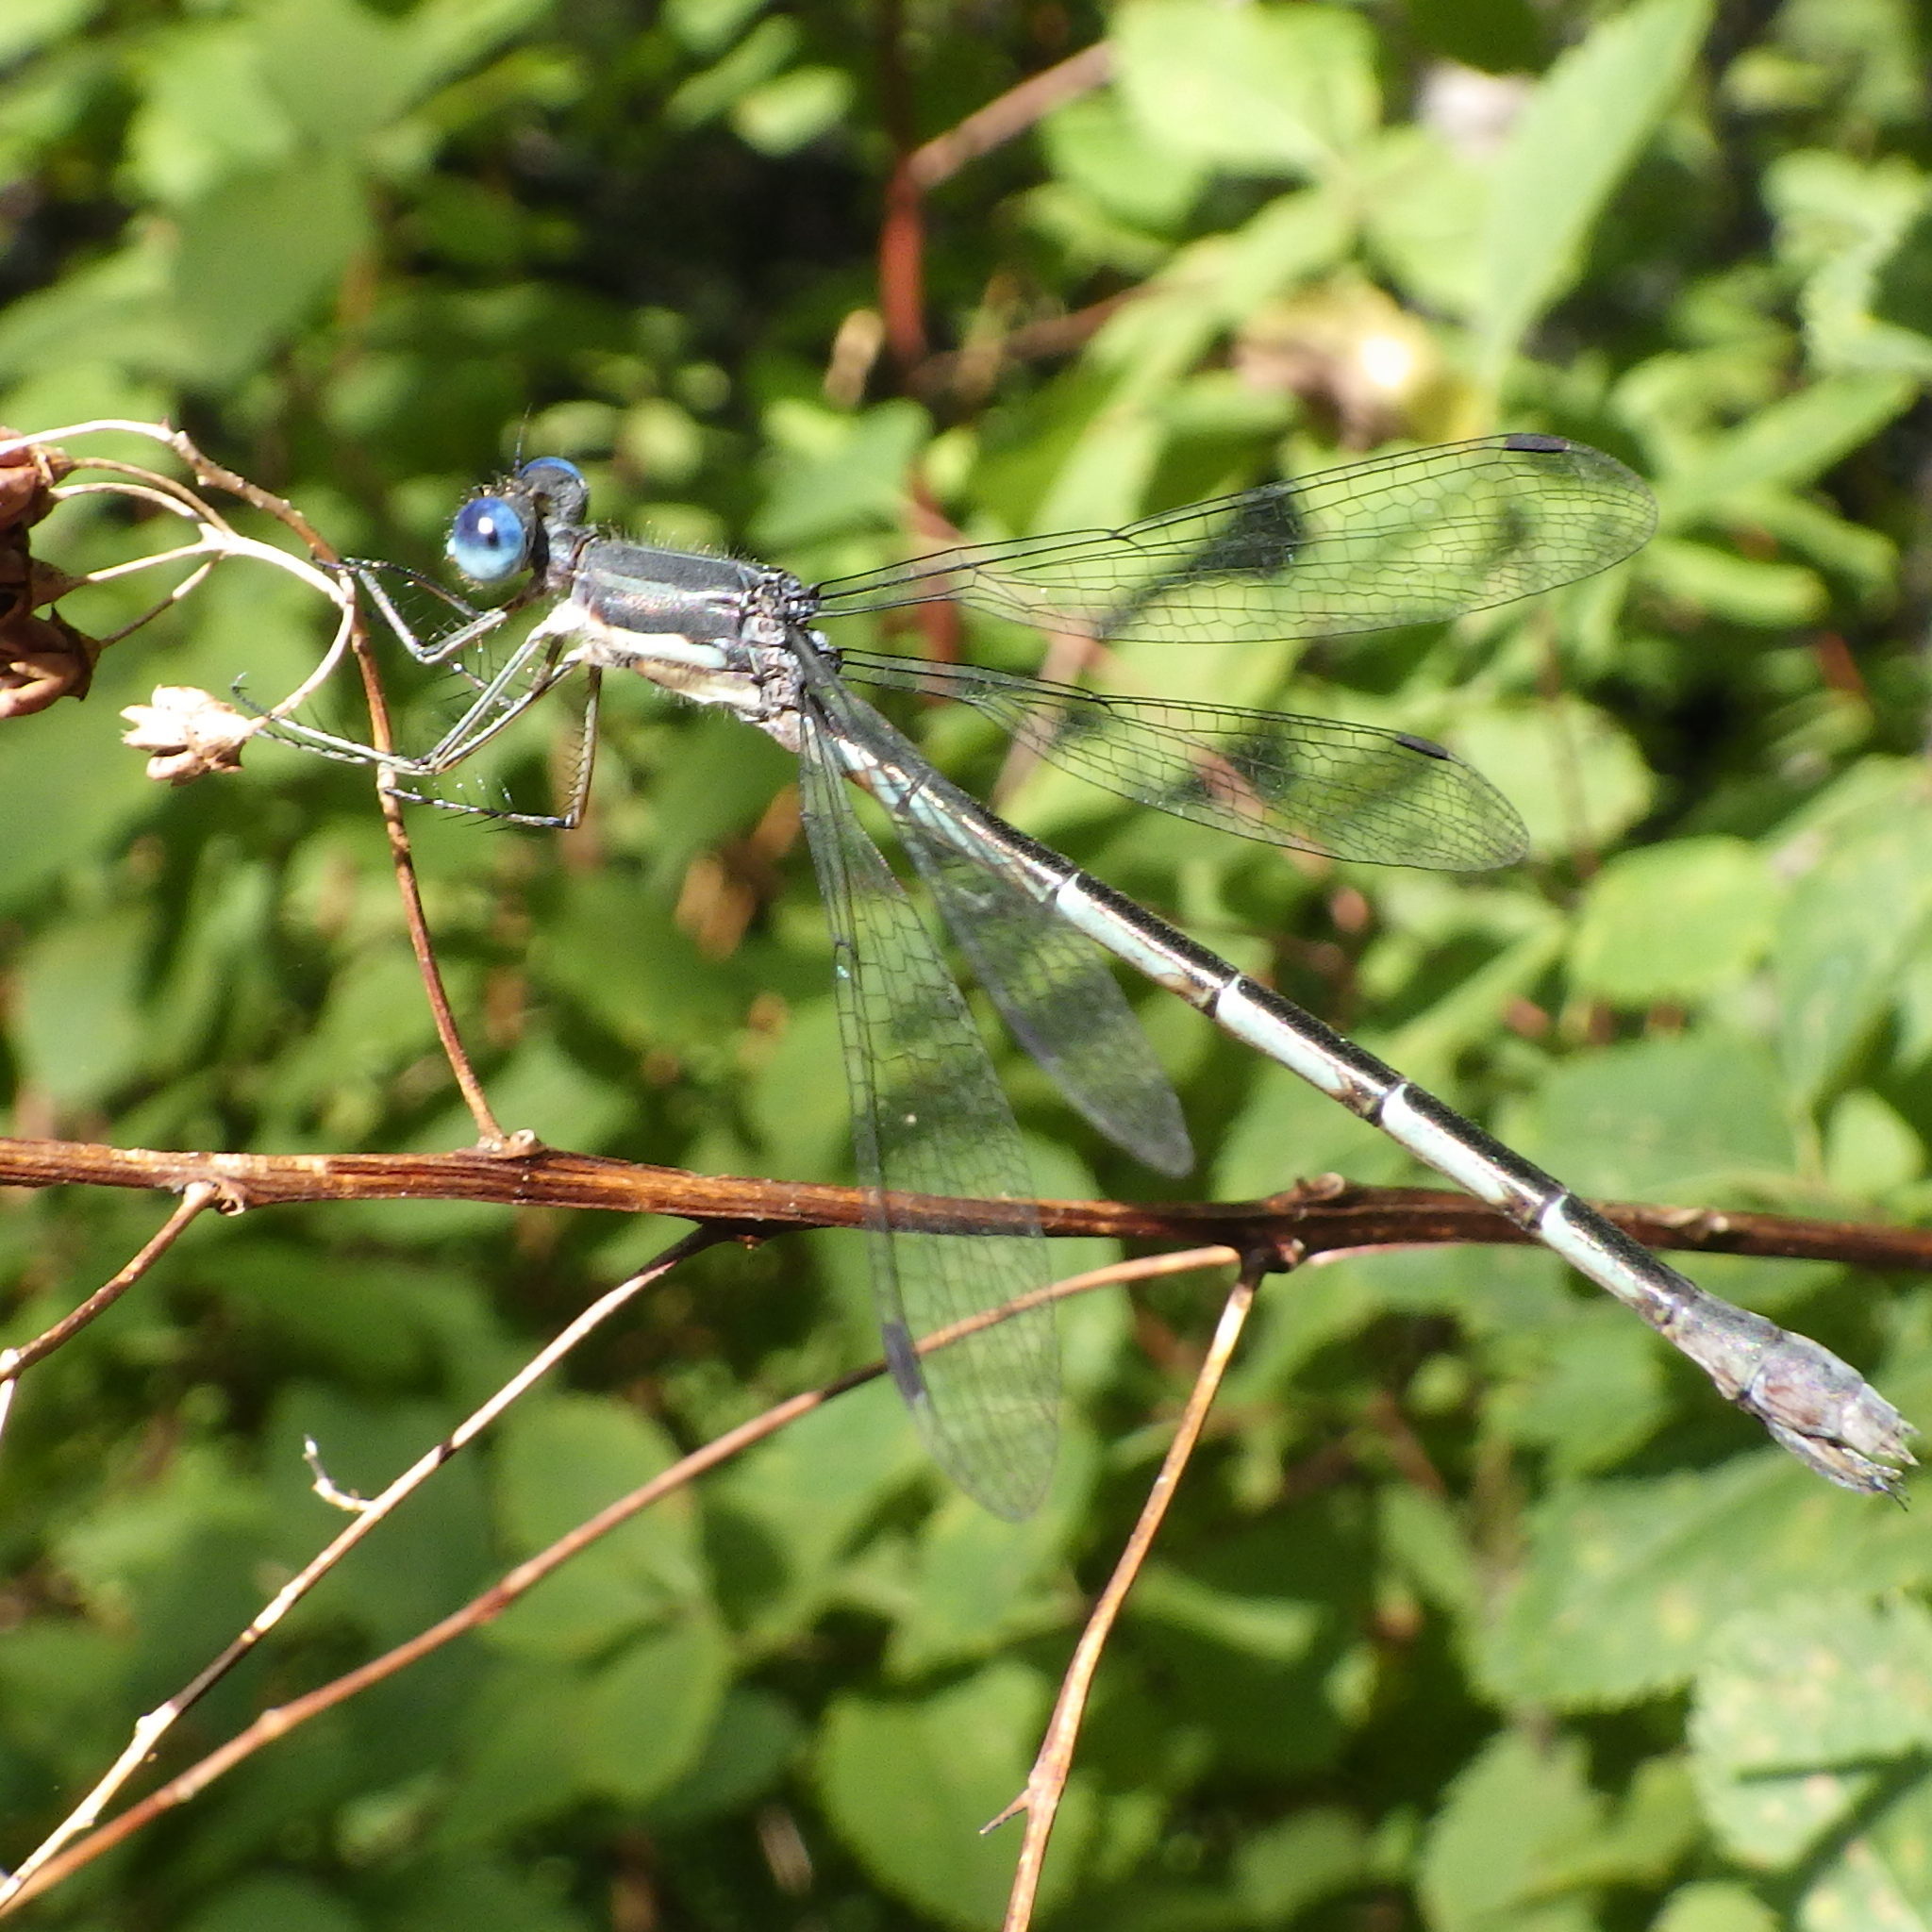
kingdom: Animalia
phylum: Arthropoda
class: Insecta
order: Odonata
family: Lestidae
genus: Lestes
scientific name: Lestes forcipatus
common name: Sweetflag spreadwing
